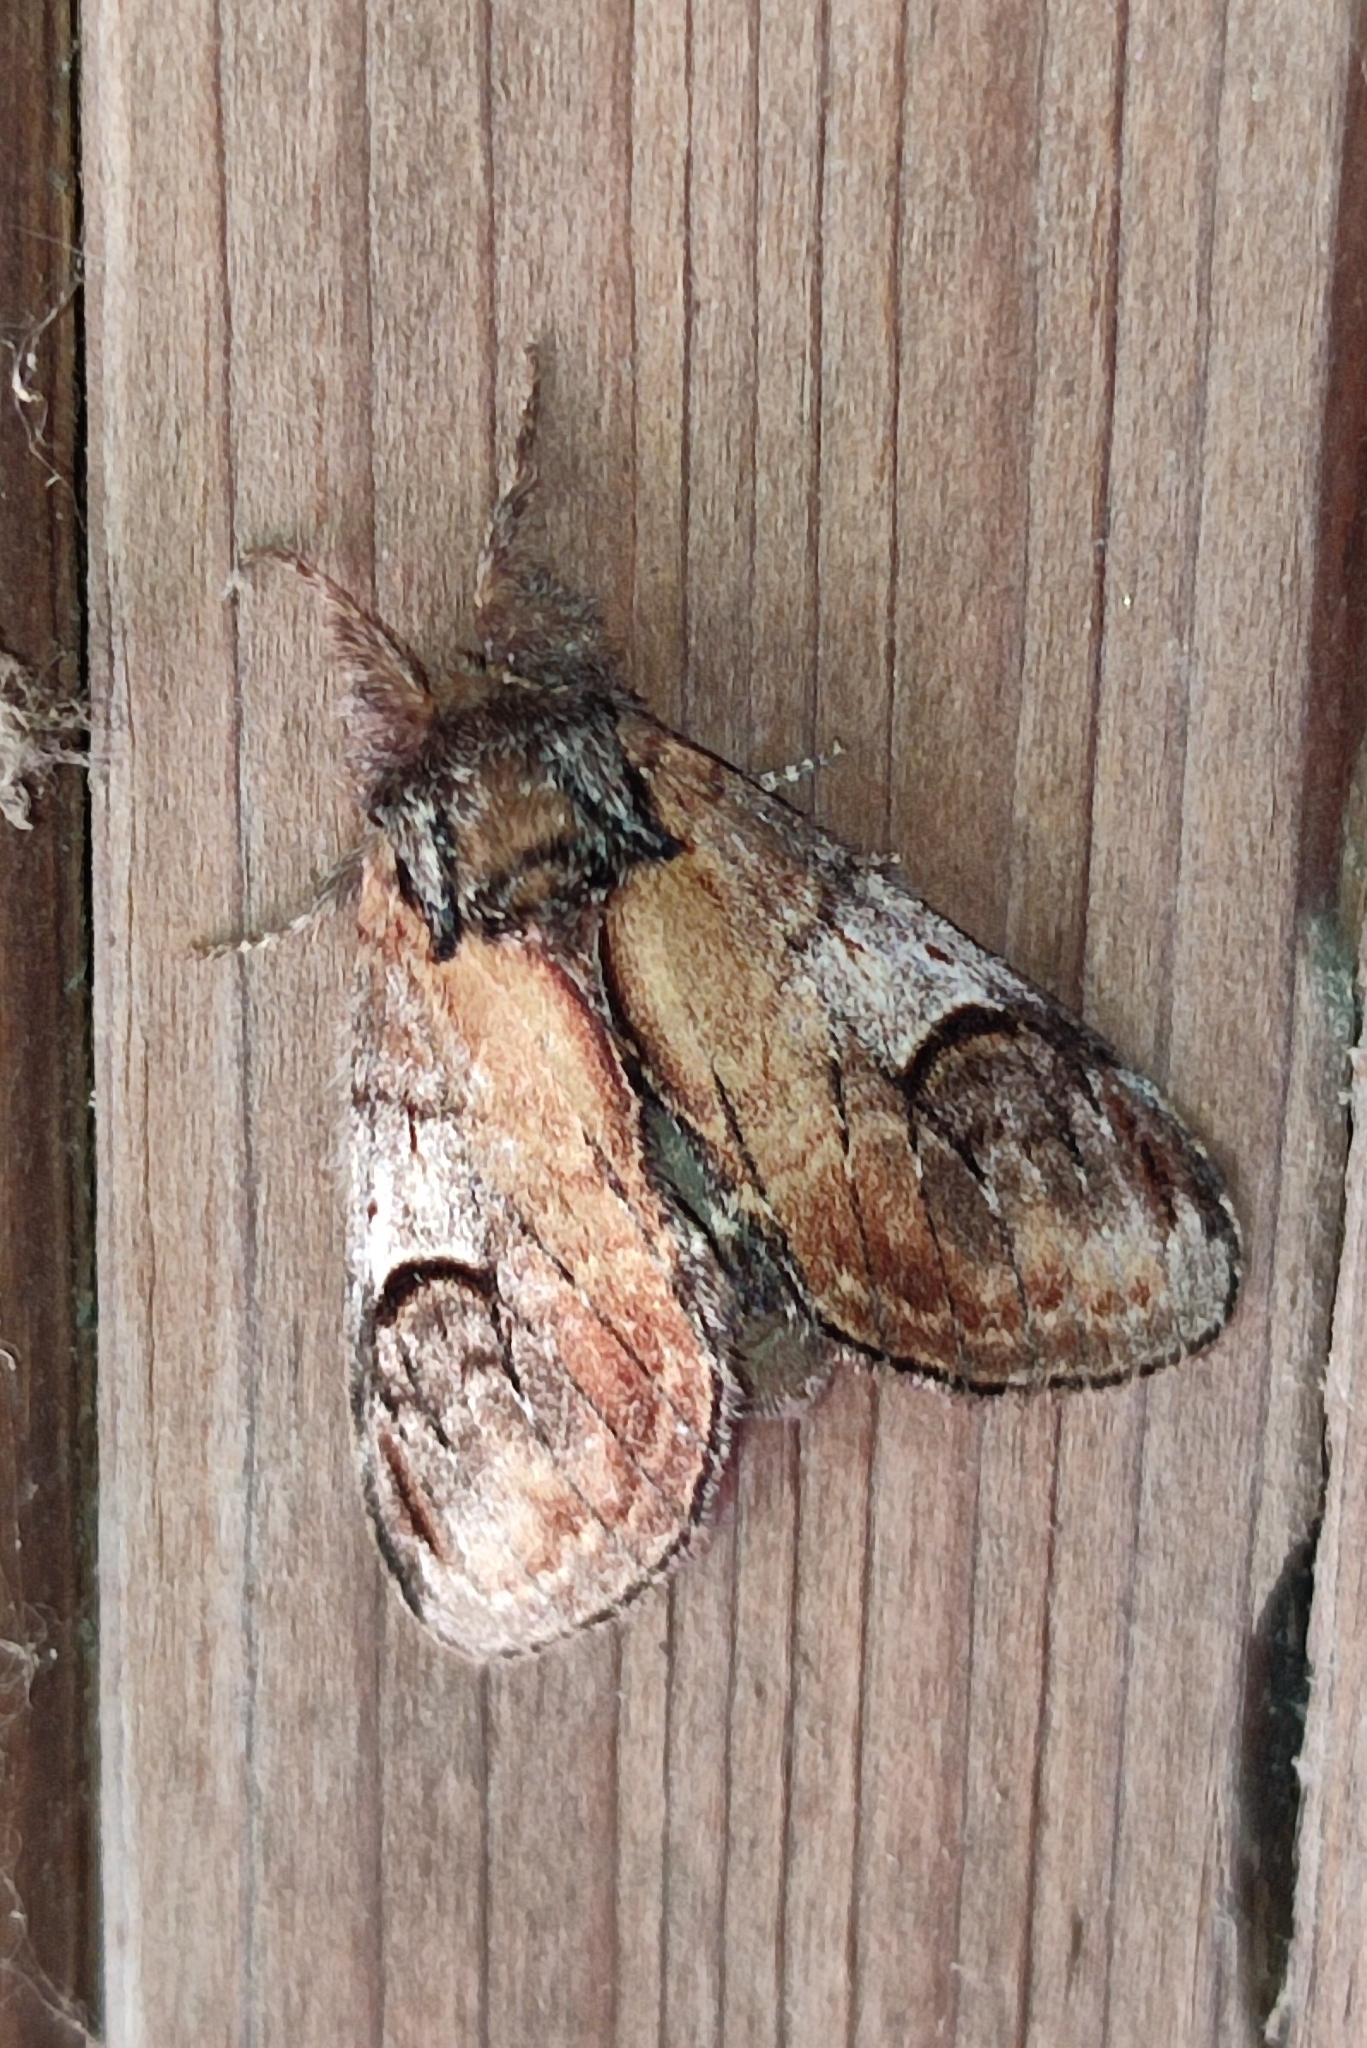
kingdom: Animalia
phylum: Arthropoda
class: Insecta
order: Lepidoptera
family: Notodontidae
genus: Notodonta
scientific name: Notodonta ziczac
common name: Pebble prominent
